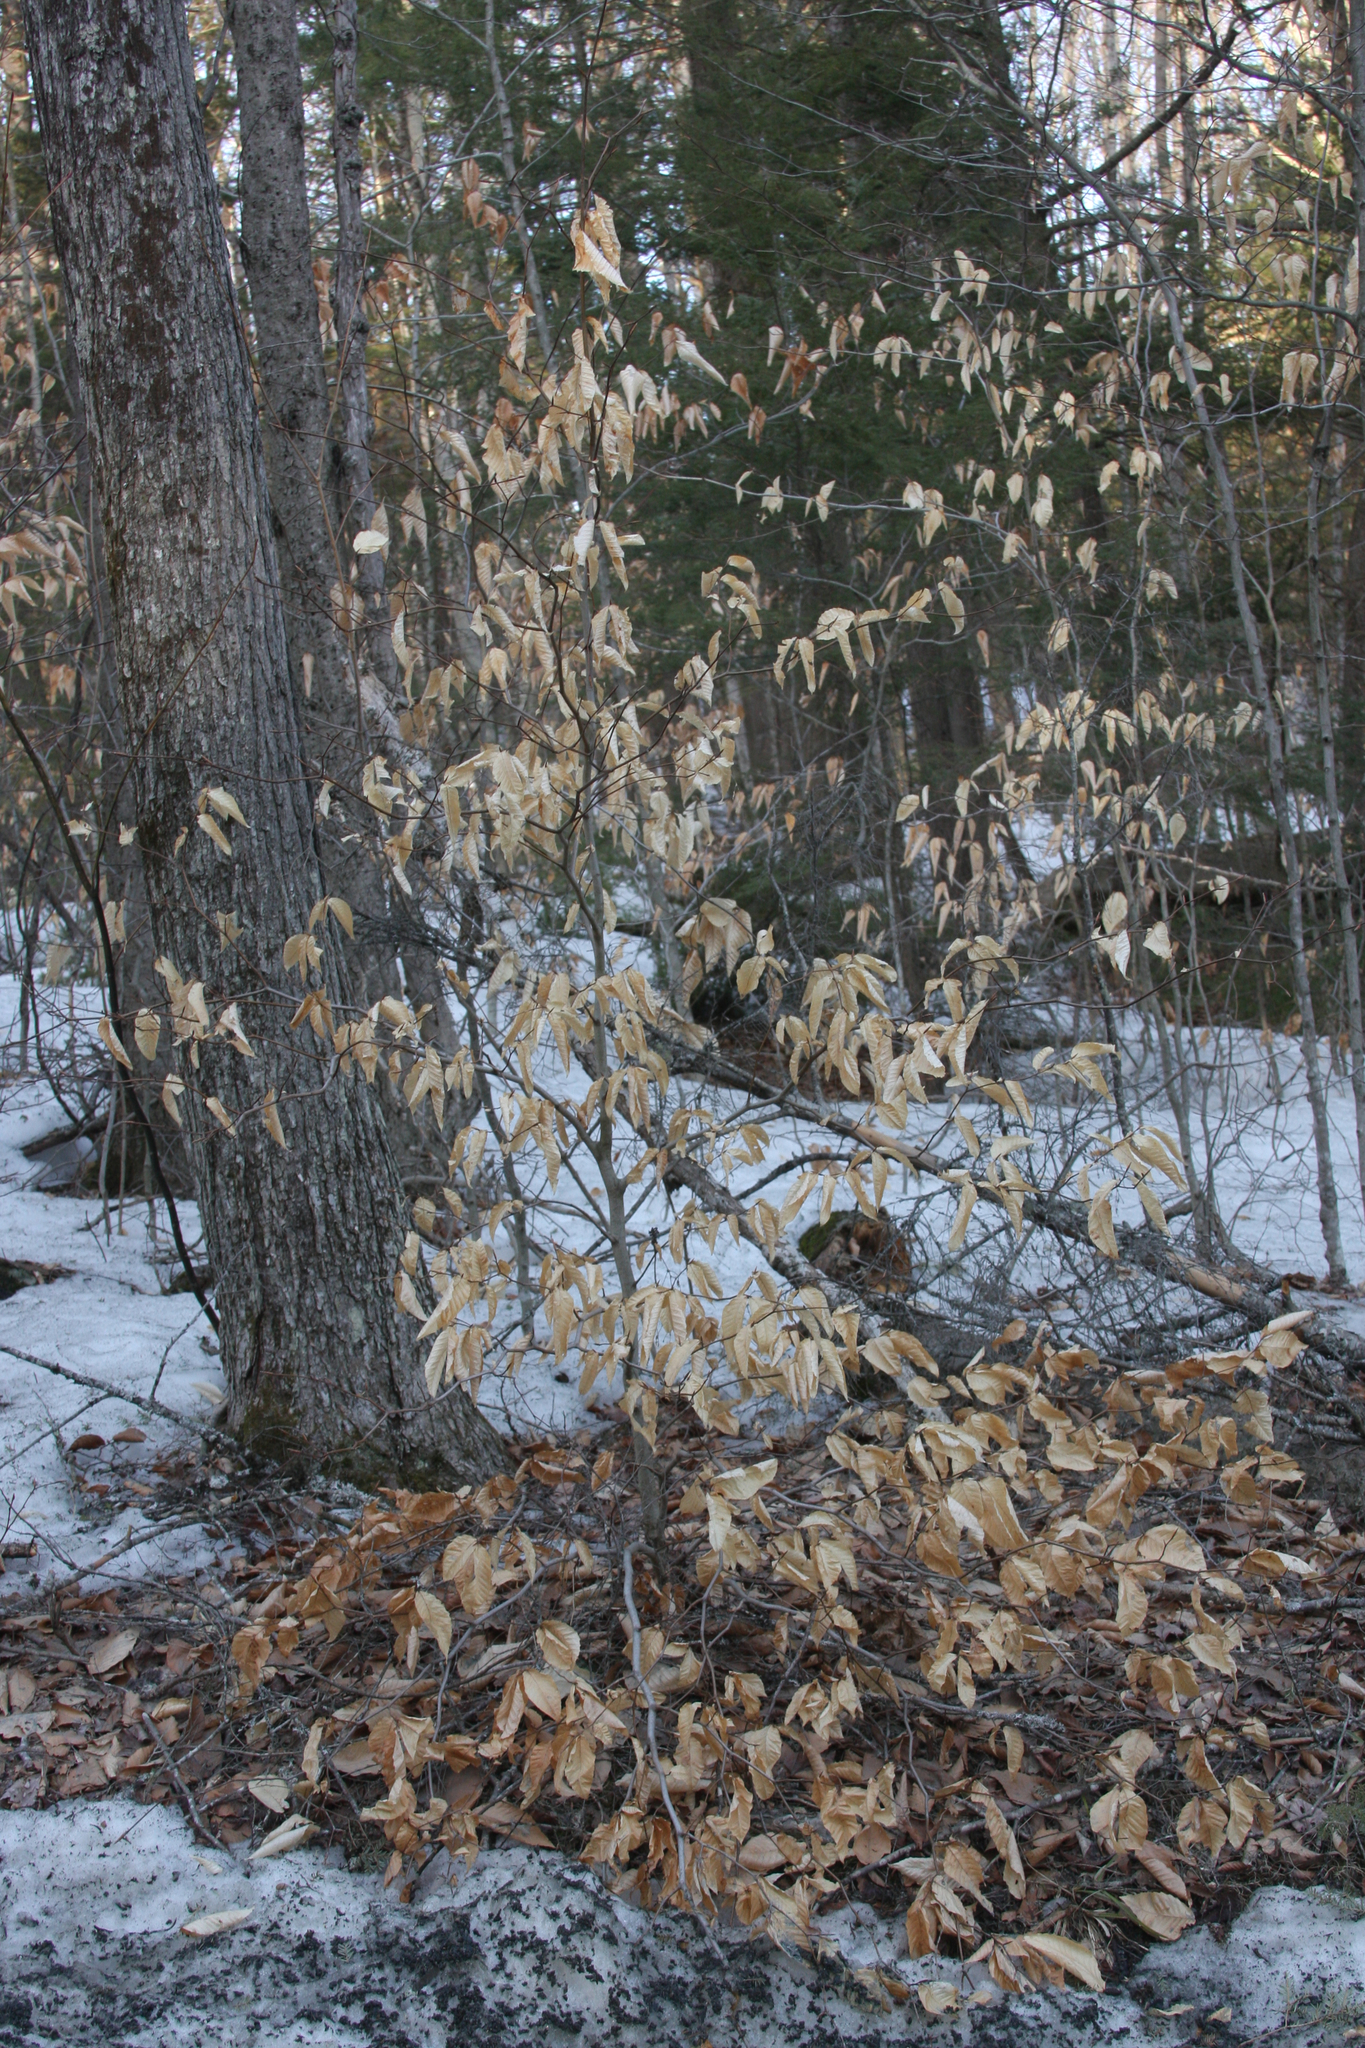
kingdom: Plantae
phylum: Tracheophyta
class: Magnoliopsida
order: Fagales
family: Fagaceae
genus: Fagus
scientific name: Fagus grandifolia
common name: American beech
